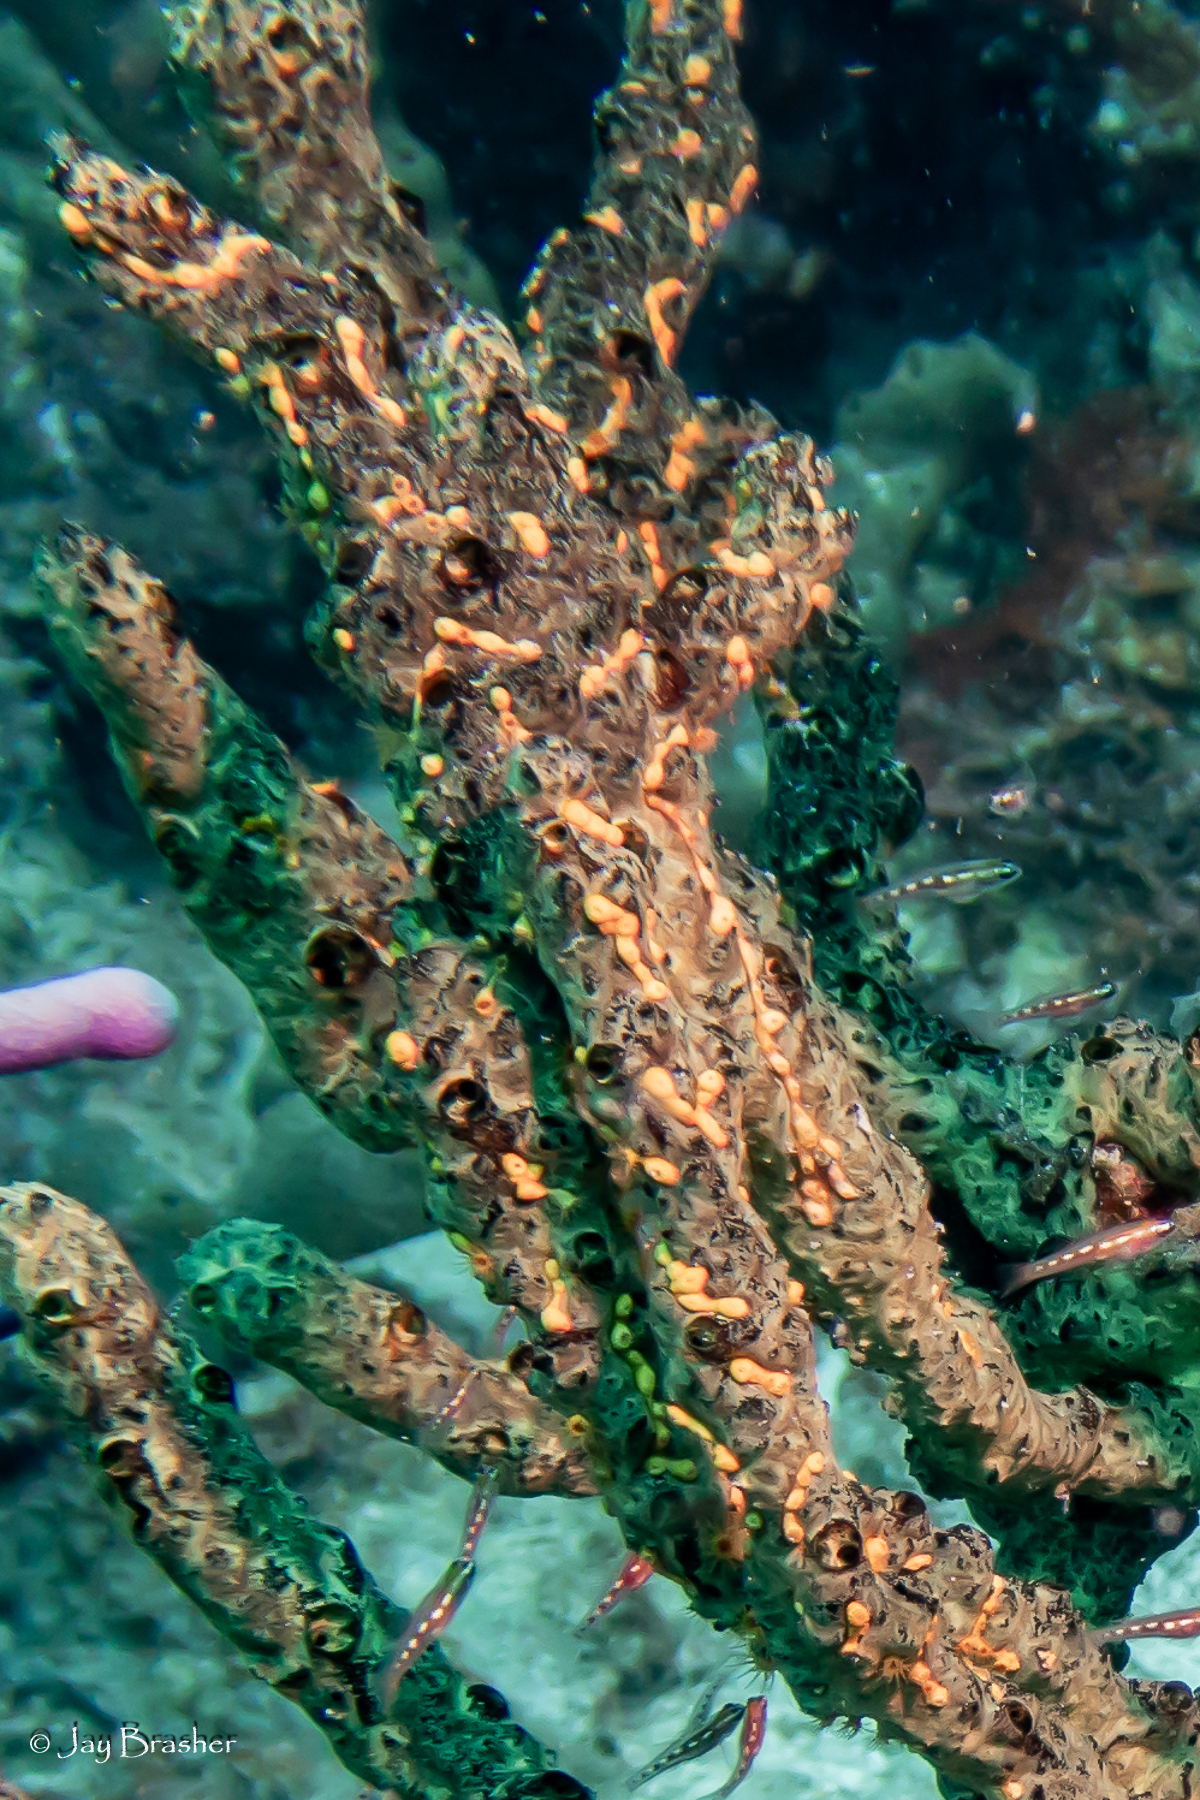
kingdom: Animalia
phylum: Cnidaria
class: Anthozoa
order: Zoantharia
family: Parazoanthidae
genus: Parazoanthus
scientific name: Parazoanthus swiftii
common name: Golden zoanthid
